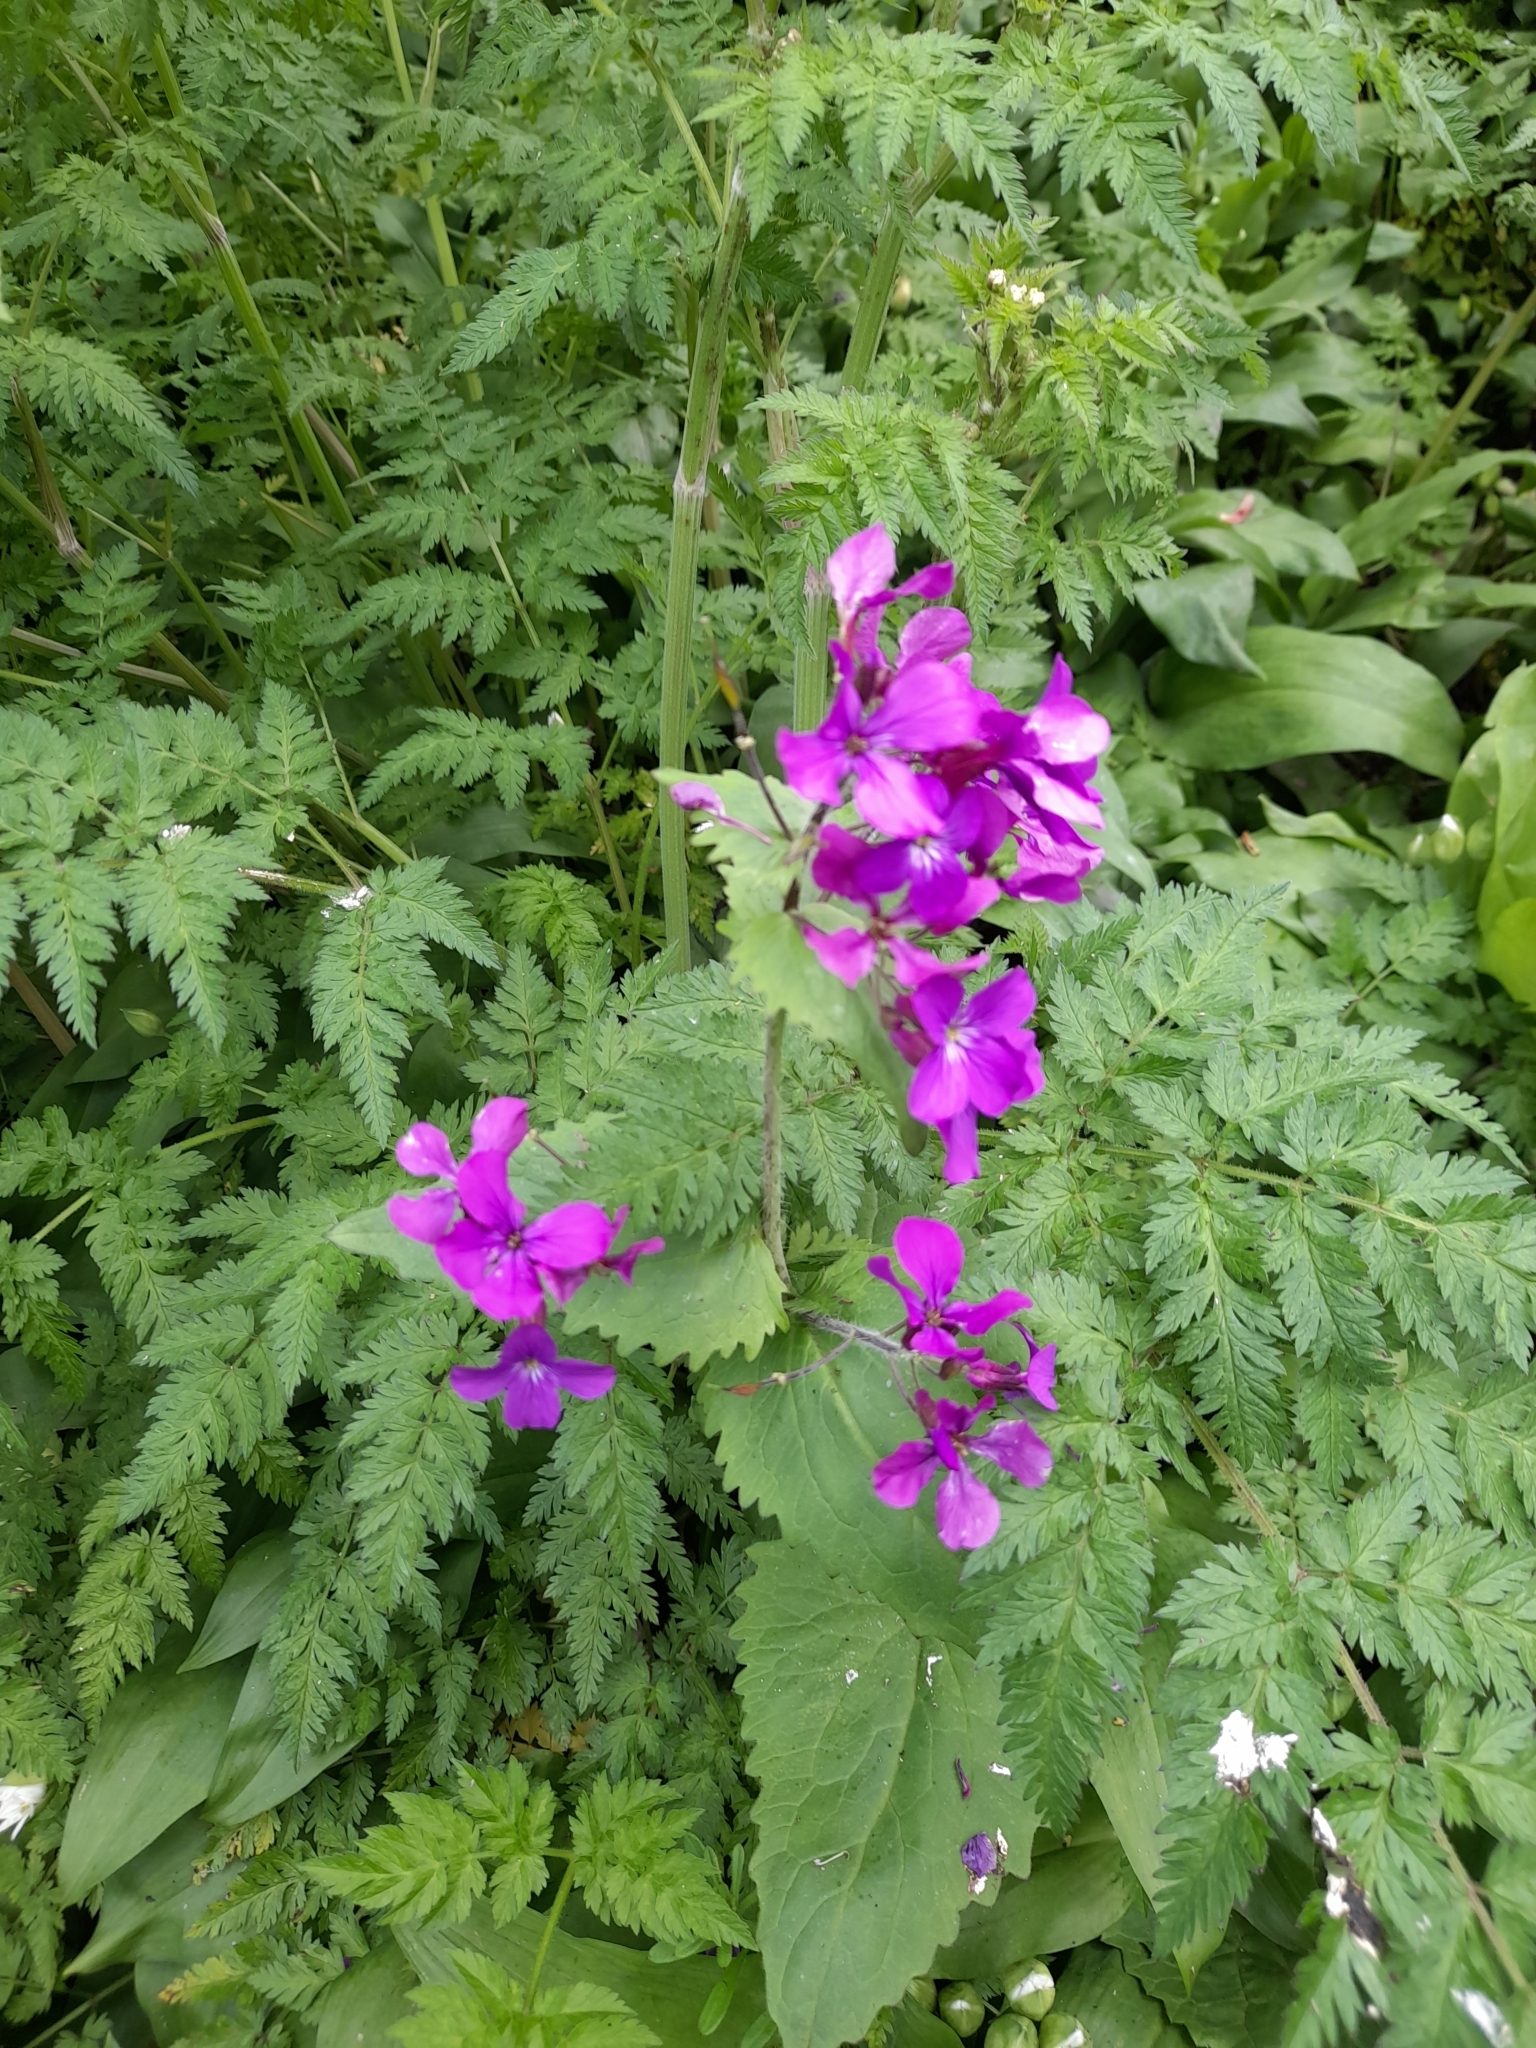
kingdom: Plantae
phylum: Tracheophyta
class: Magnoliopsida
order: Brassicales
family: Brassicaceae
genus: Lunaria
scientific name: Lunaria annua
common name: Honesty
